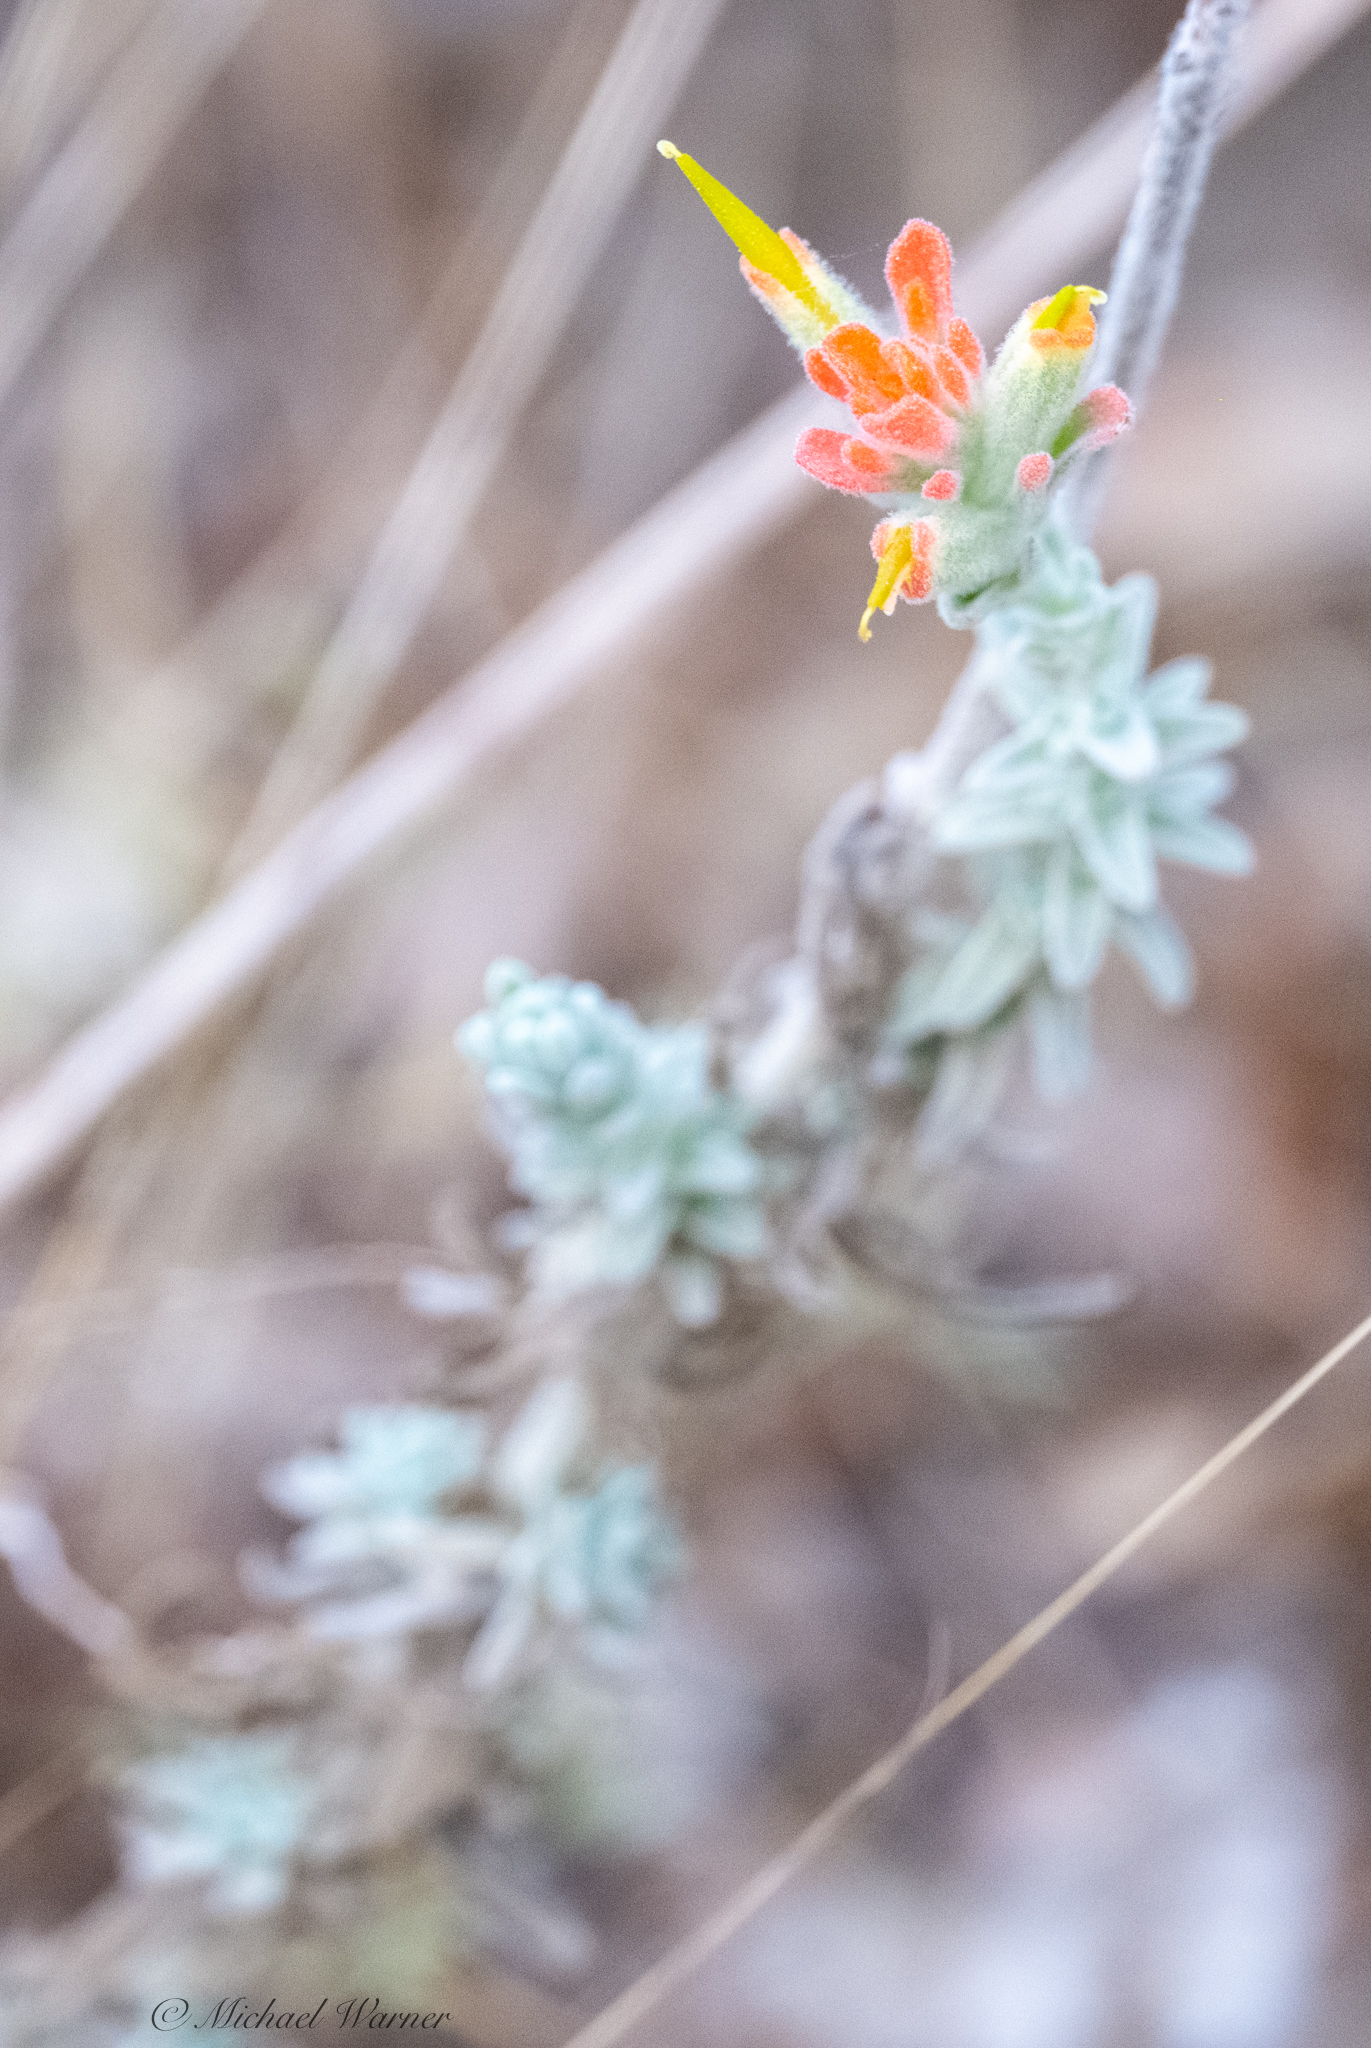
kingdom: Plantae
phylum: Tracheophyta
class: Magnoliopsida
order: Lamiales
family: Orobanchaceae
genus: Castilleja
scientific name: Castilleja foliolosa
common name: Woolly indian paintbrush
